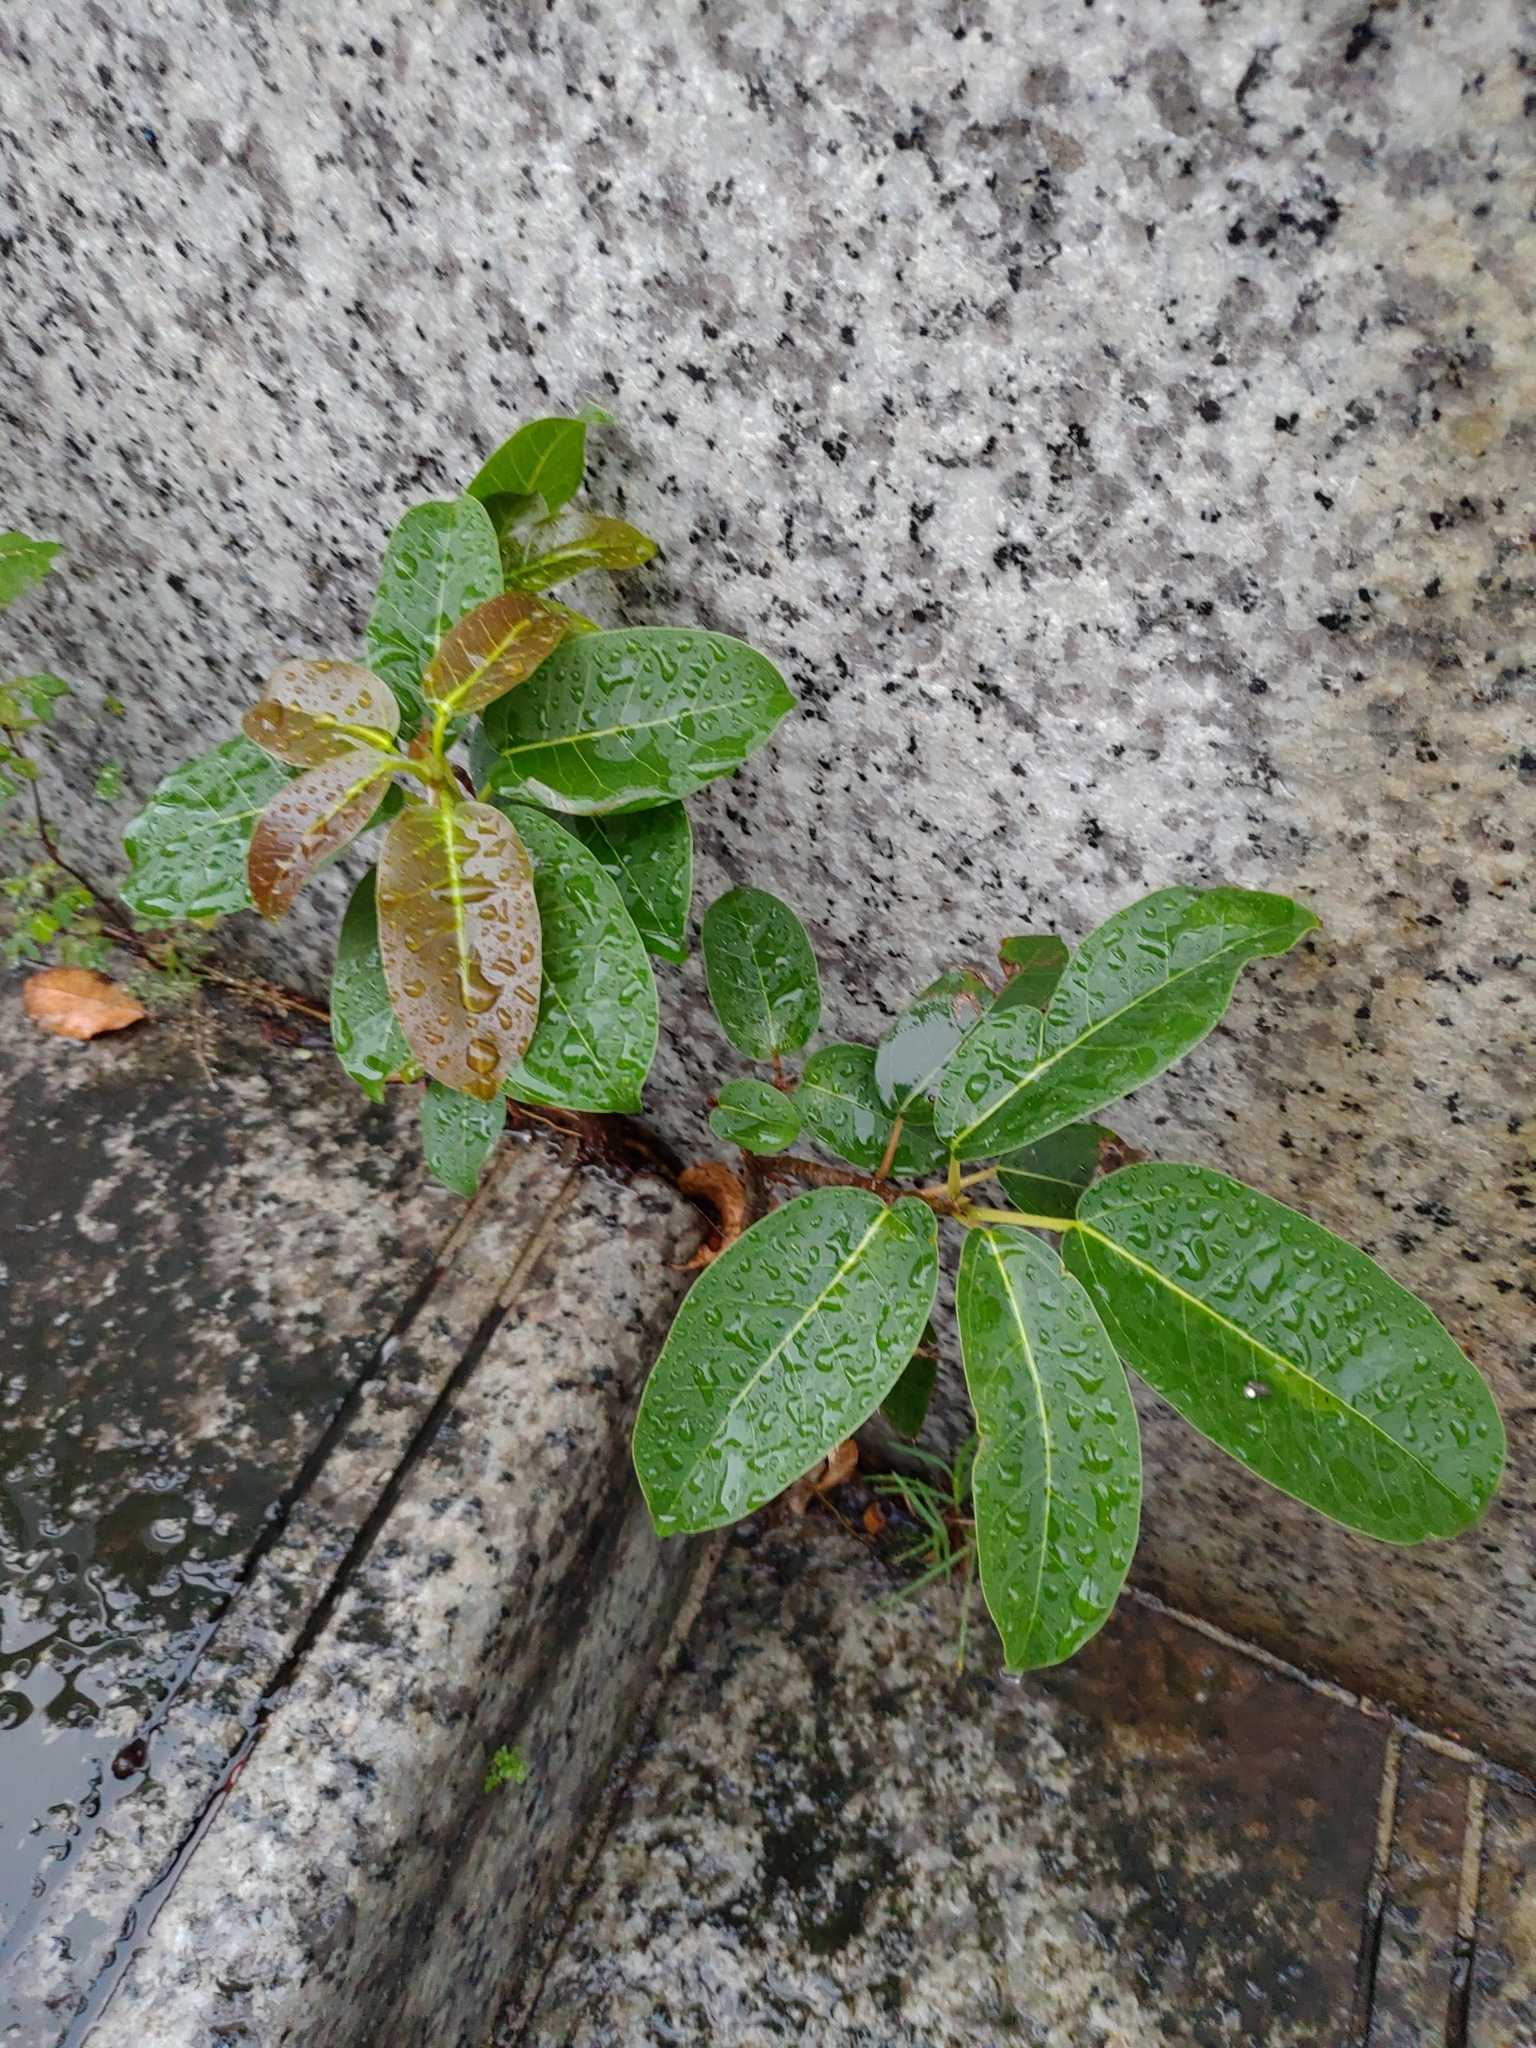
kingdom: Plantae
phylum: Tracheophyta
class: Magnoliopsida
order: Rosales
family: Moraceae
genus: Ficus
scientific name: Ficus subpisocarpa
